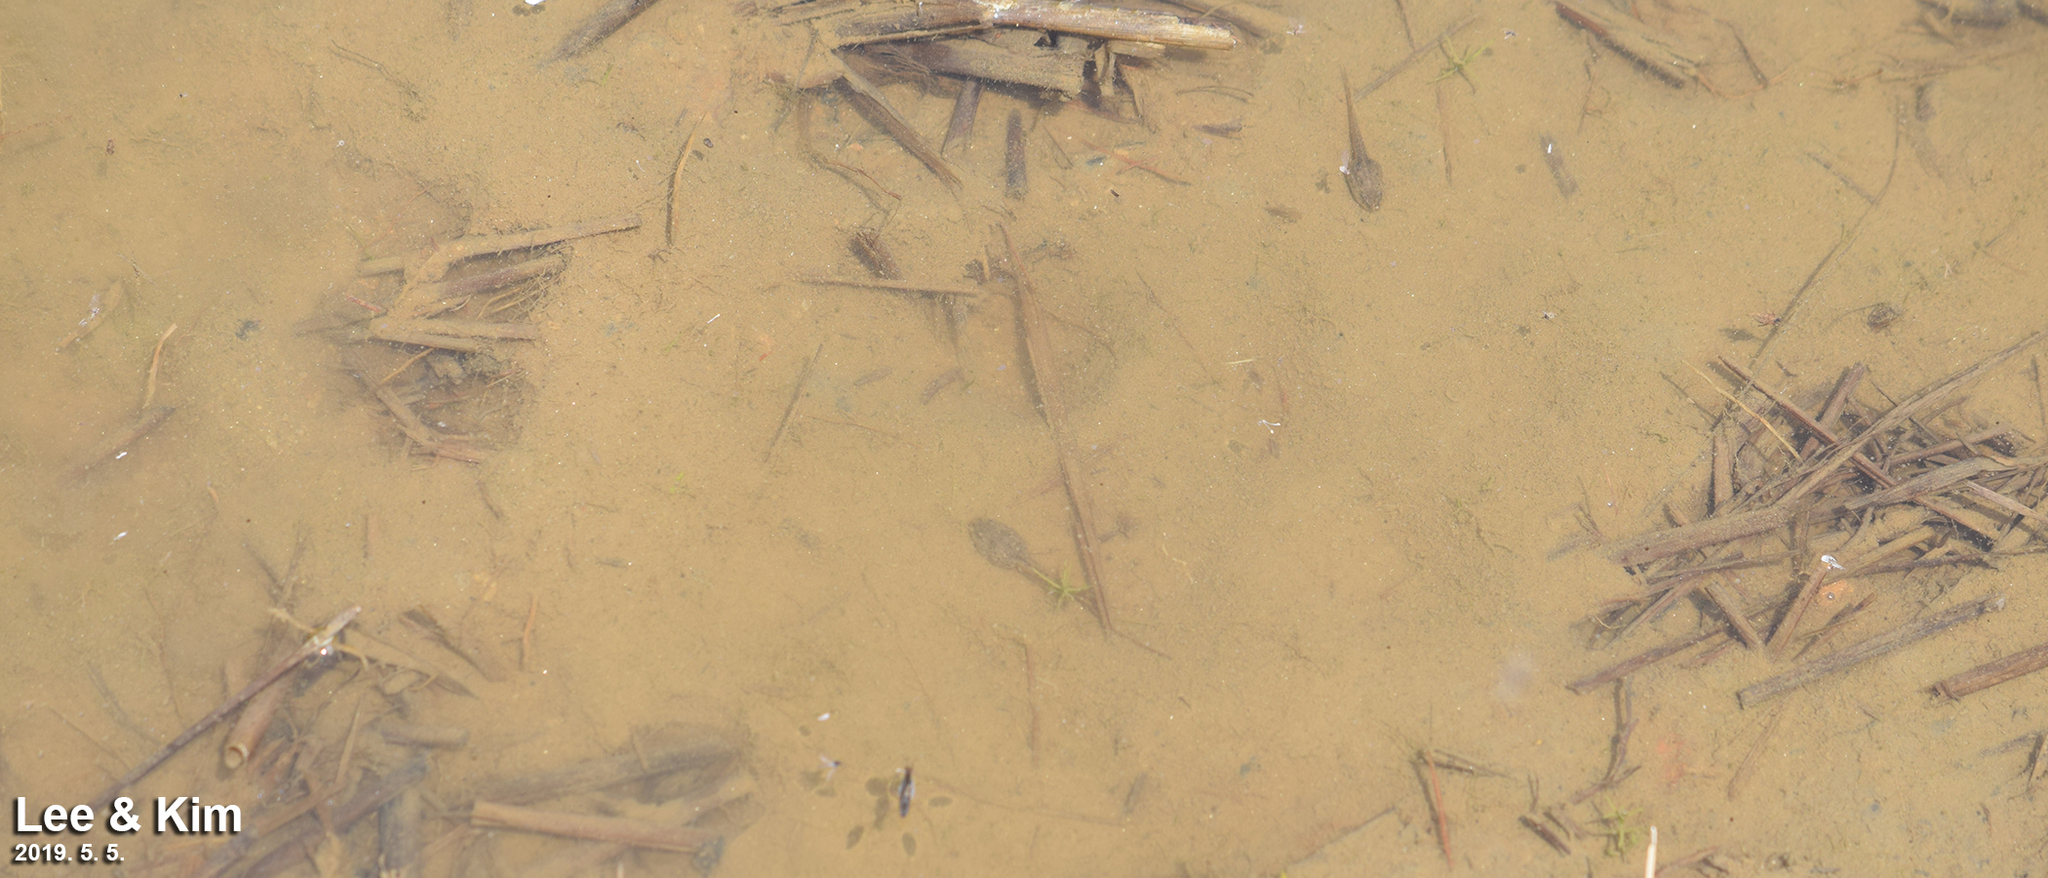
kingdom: Animalia
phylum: Chordata
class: Amphibia
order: Anura
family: Ranidae
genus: Rana
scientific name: Rana coreana
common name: Korean brown frog
